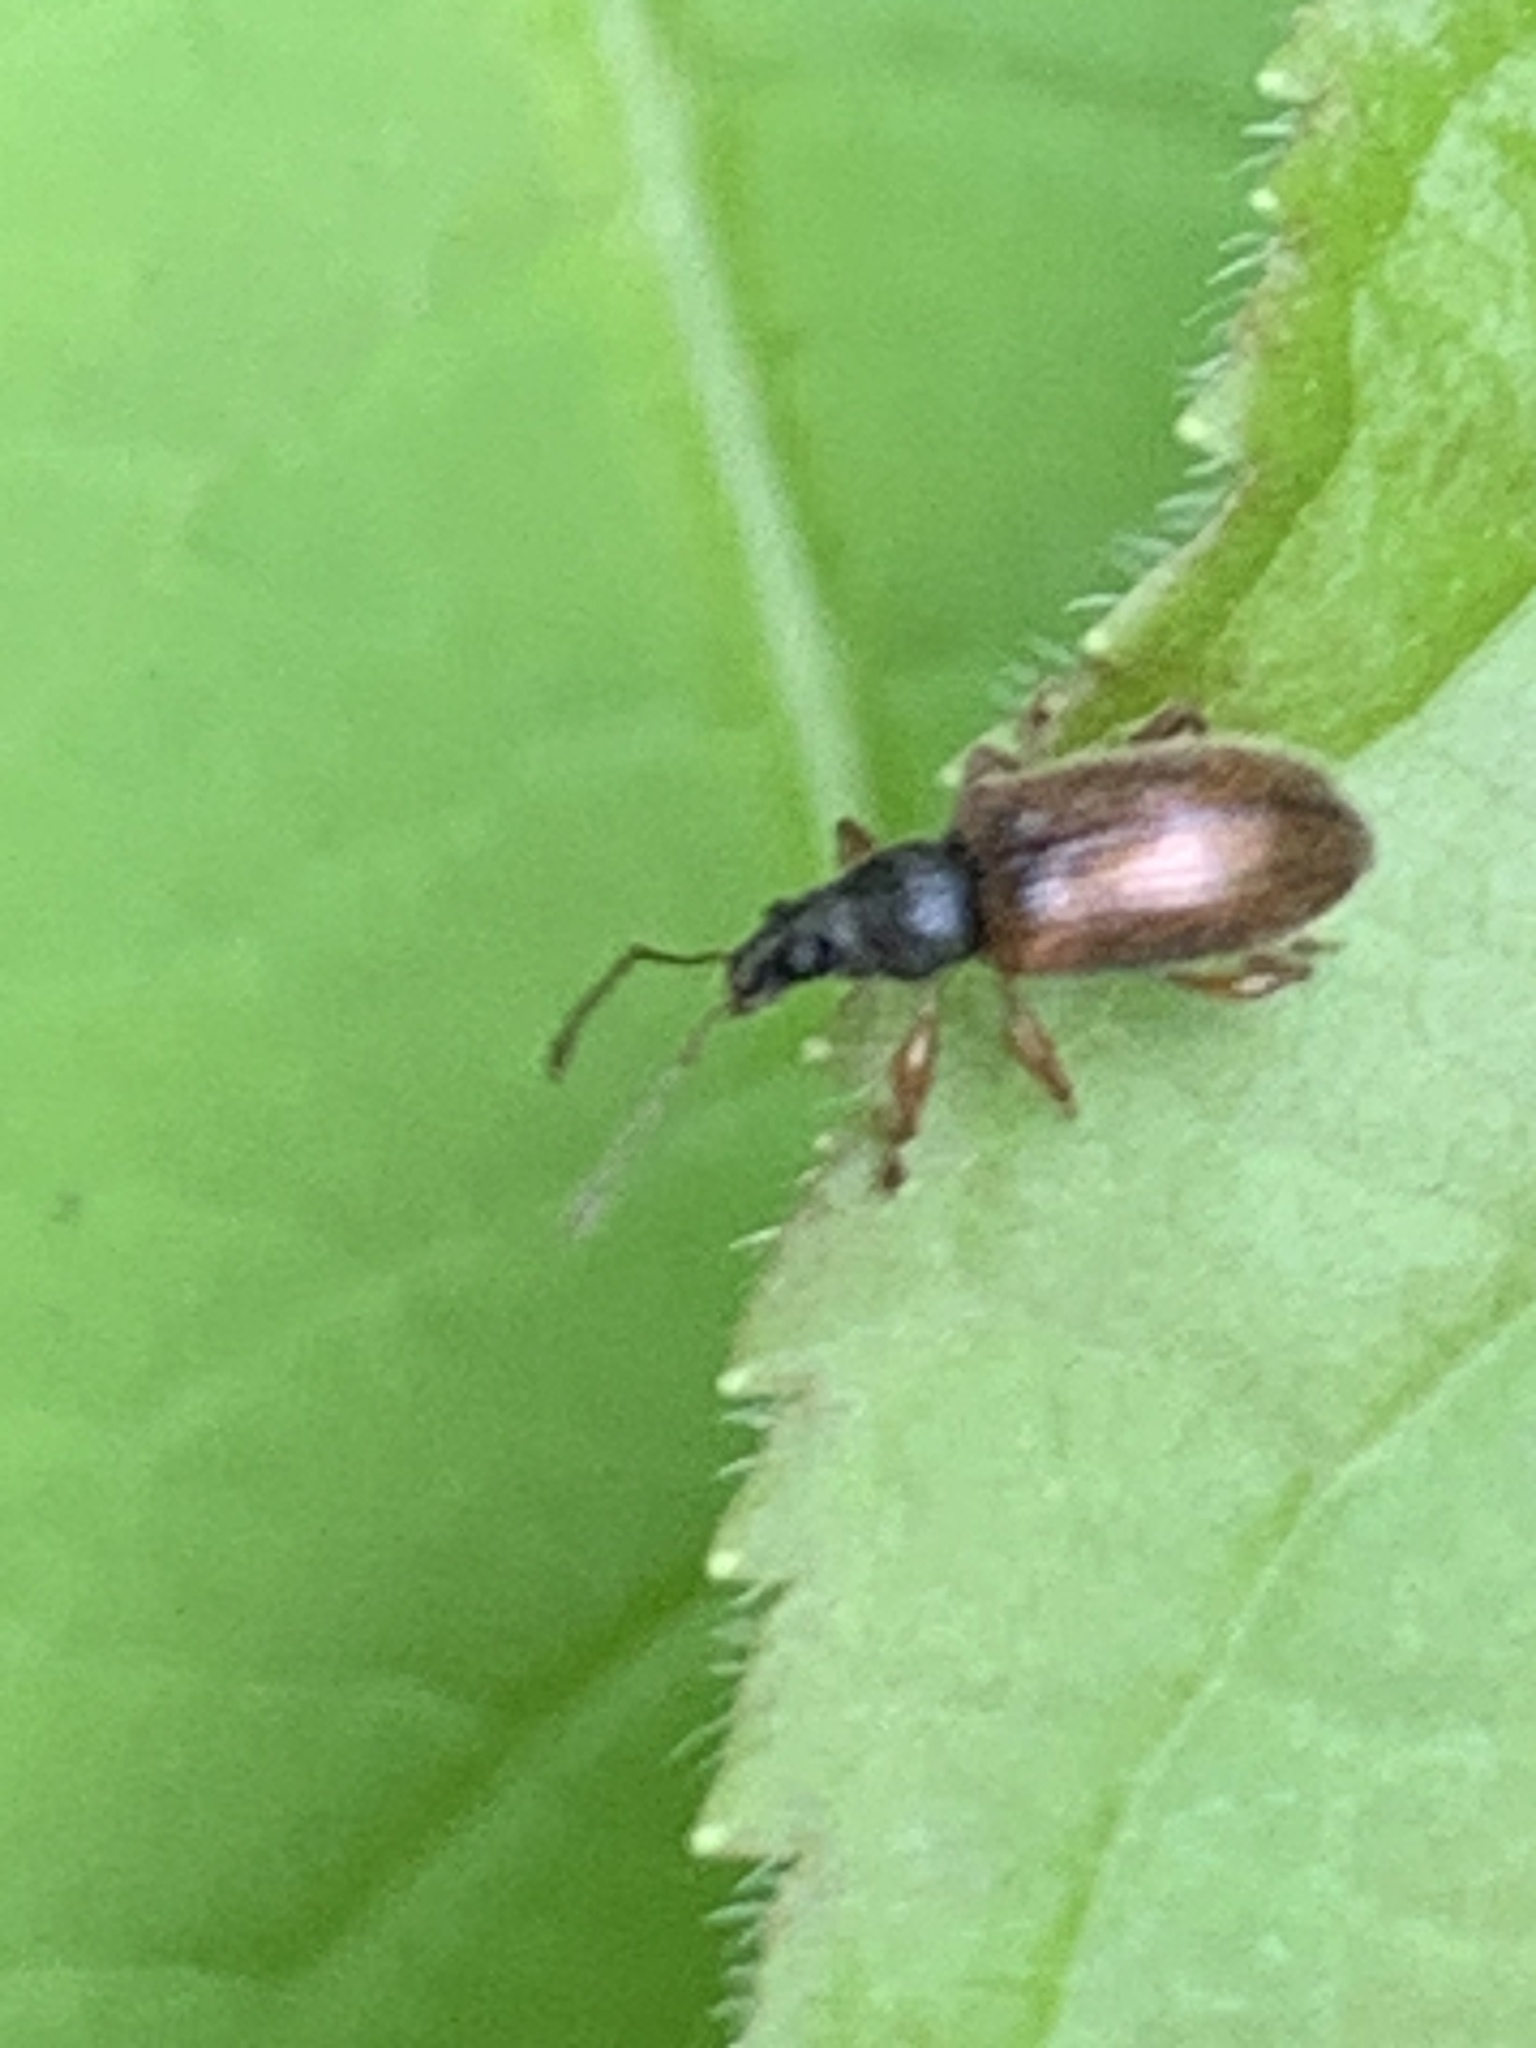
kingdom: Animalia
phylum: Arthropoda
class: Insecta
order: Coleoptera
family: Curculionidae
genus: Phyllobius
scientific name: Phyllobius oblongus
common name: Brown leaf weevil
